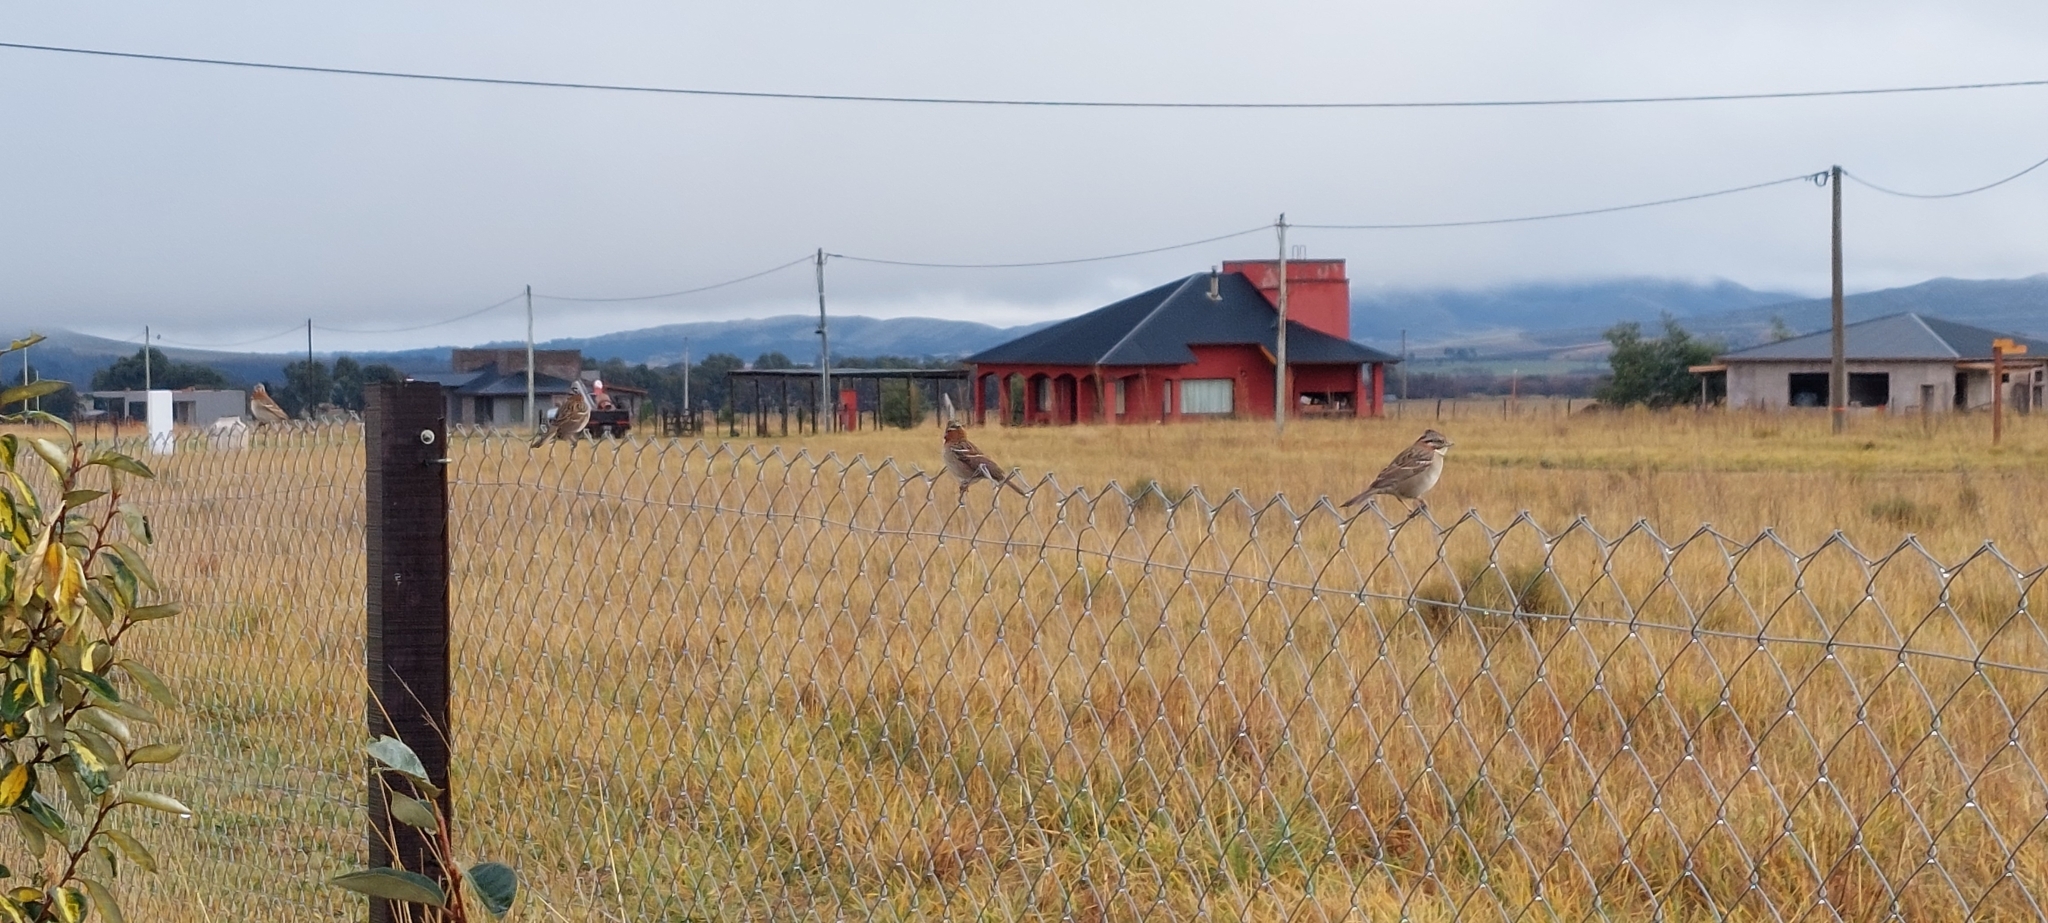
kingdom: Animalia
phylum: Chordata
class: Aves
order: Passeriformes
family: Passerellidae
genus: Zonotrichia
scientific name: Zonotrichia capensis
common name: Rufous-collared sparrow
